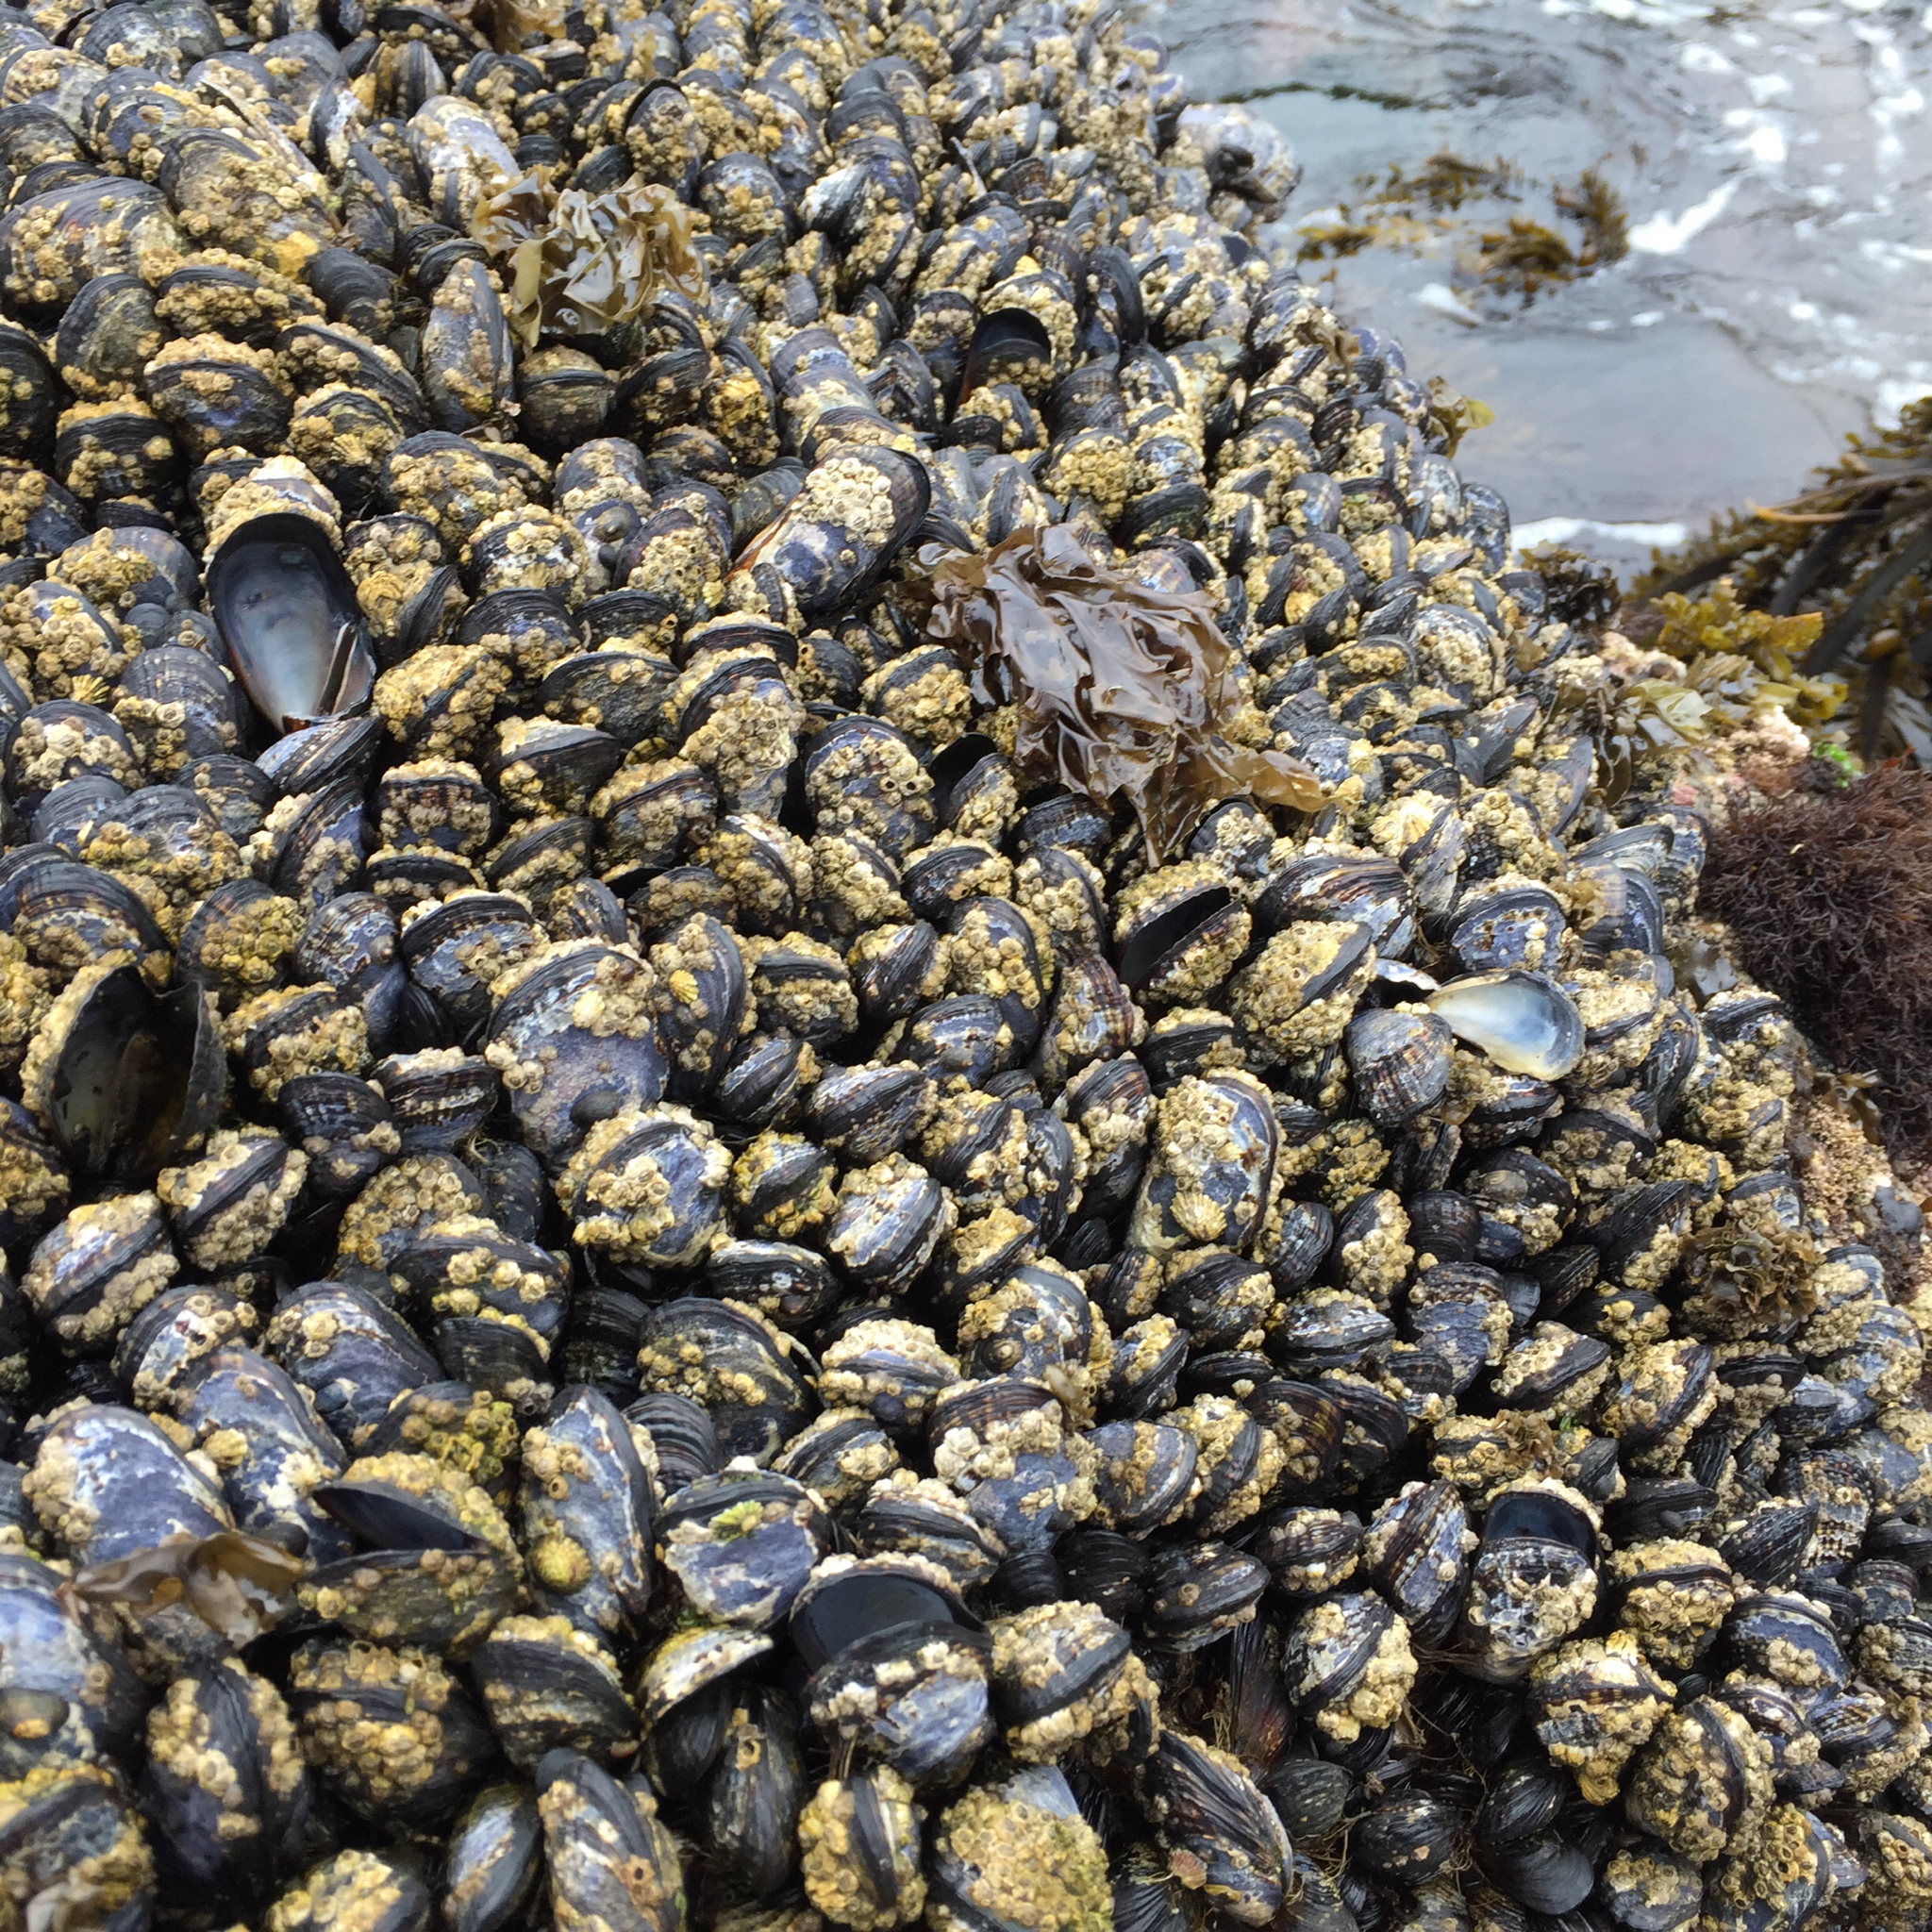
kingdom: Animalia
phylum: Mollusca
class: Bivalvia
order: Mytilida
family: Mytilidae
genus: Mytilus
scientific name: Mytilus californianus
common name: California mussel
